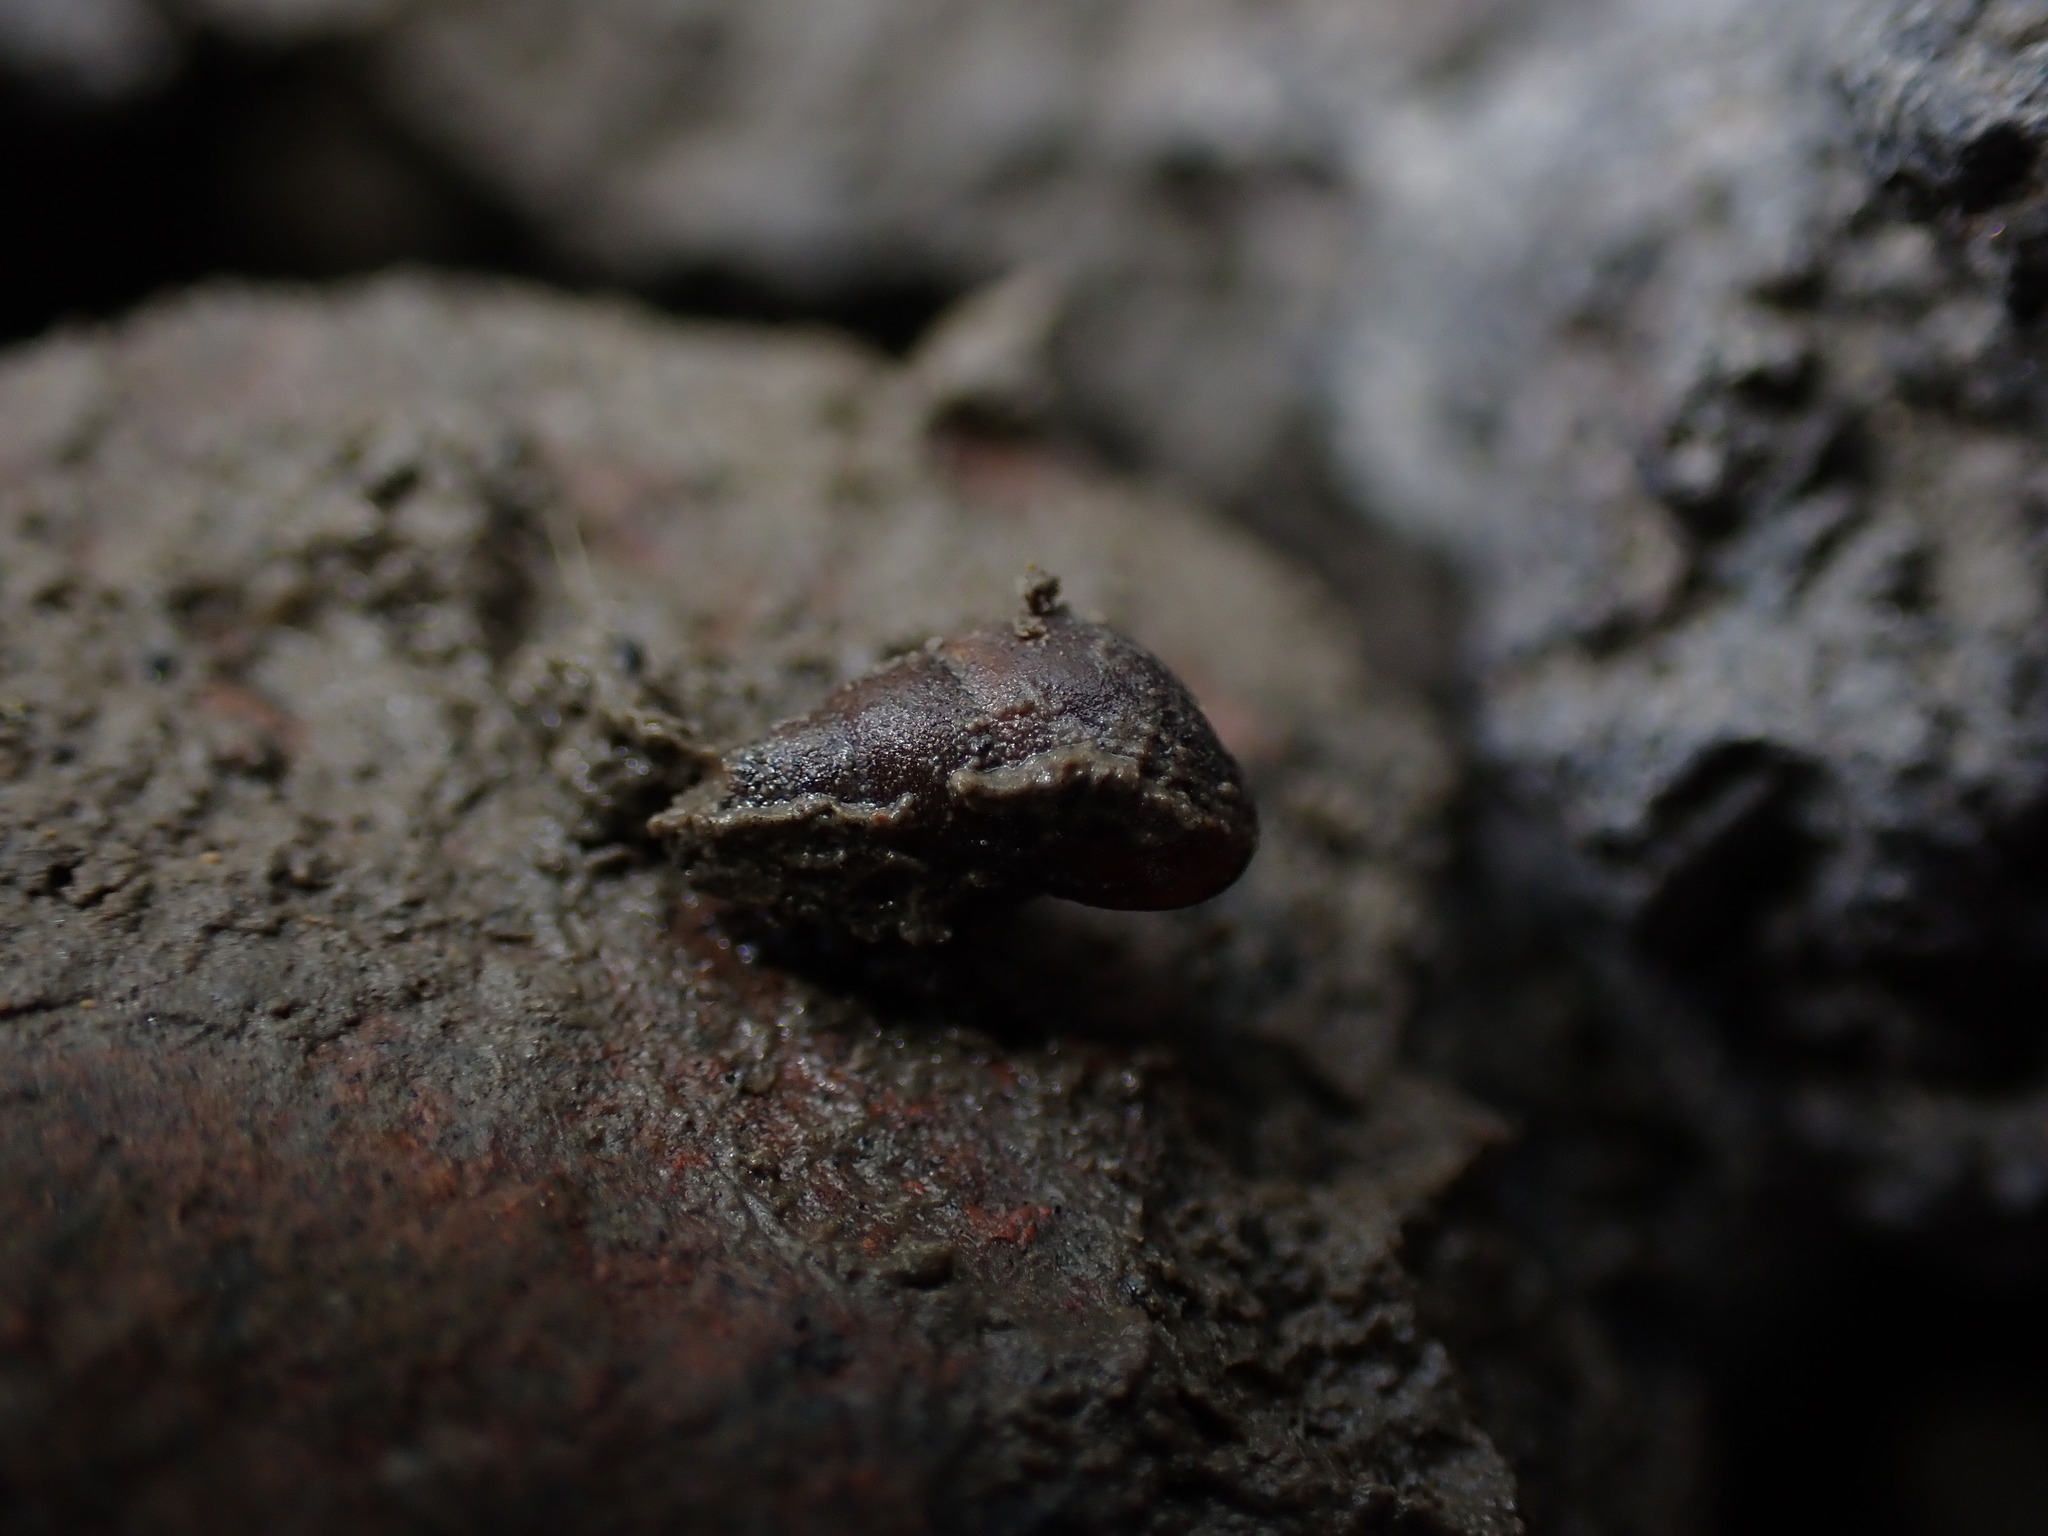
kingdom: Animalia
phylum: Mollusca
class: Gastropoda
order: Littorinimorpha
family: Tateidae
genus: Potamopyrgus
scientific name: Potamopyrgus estuarinus
